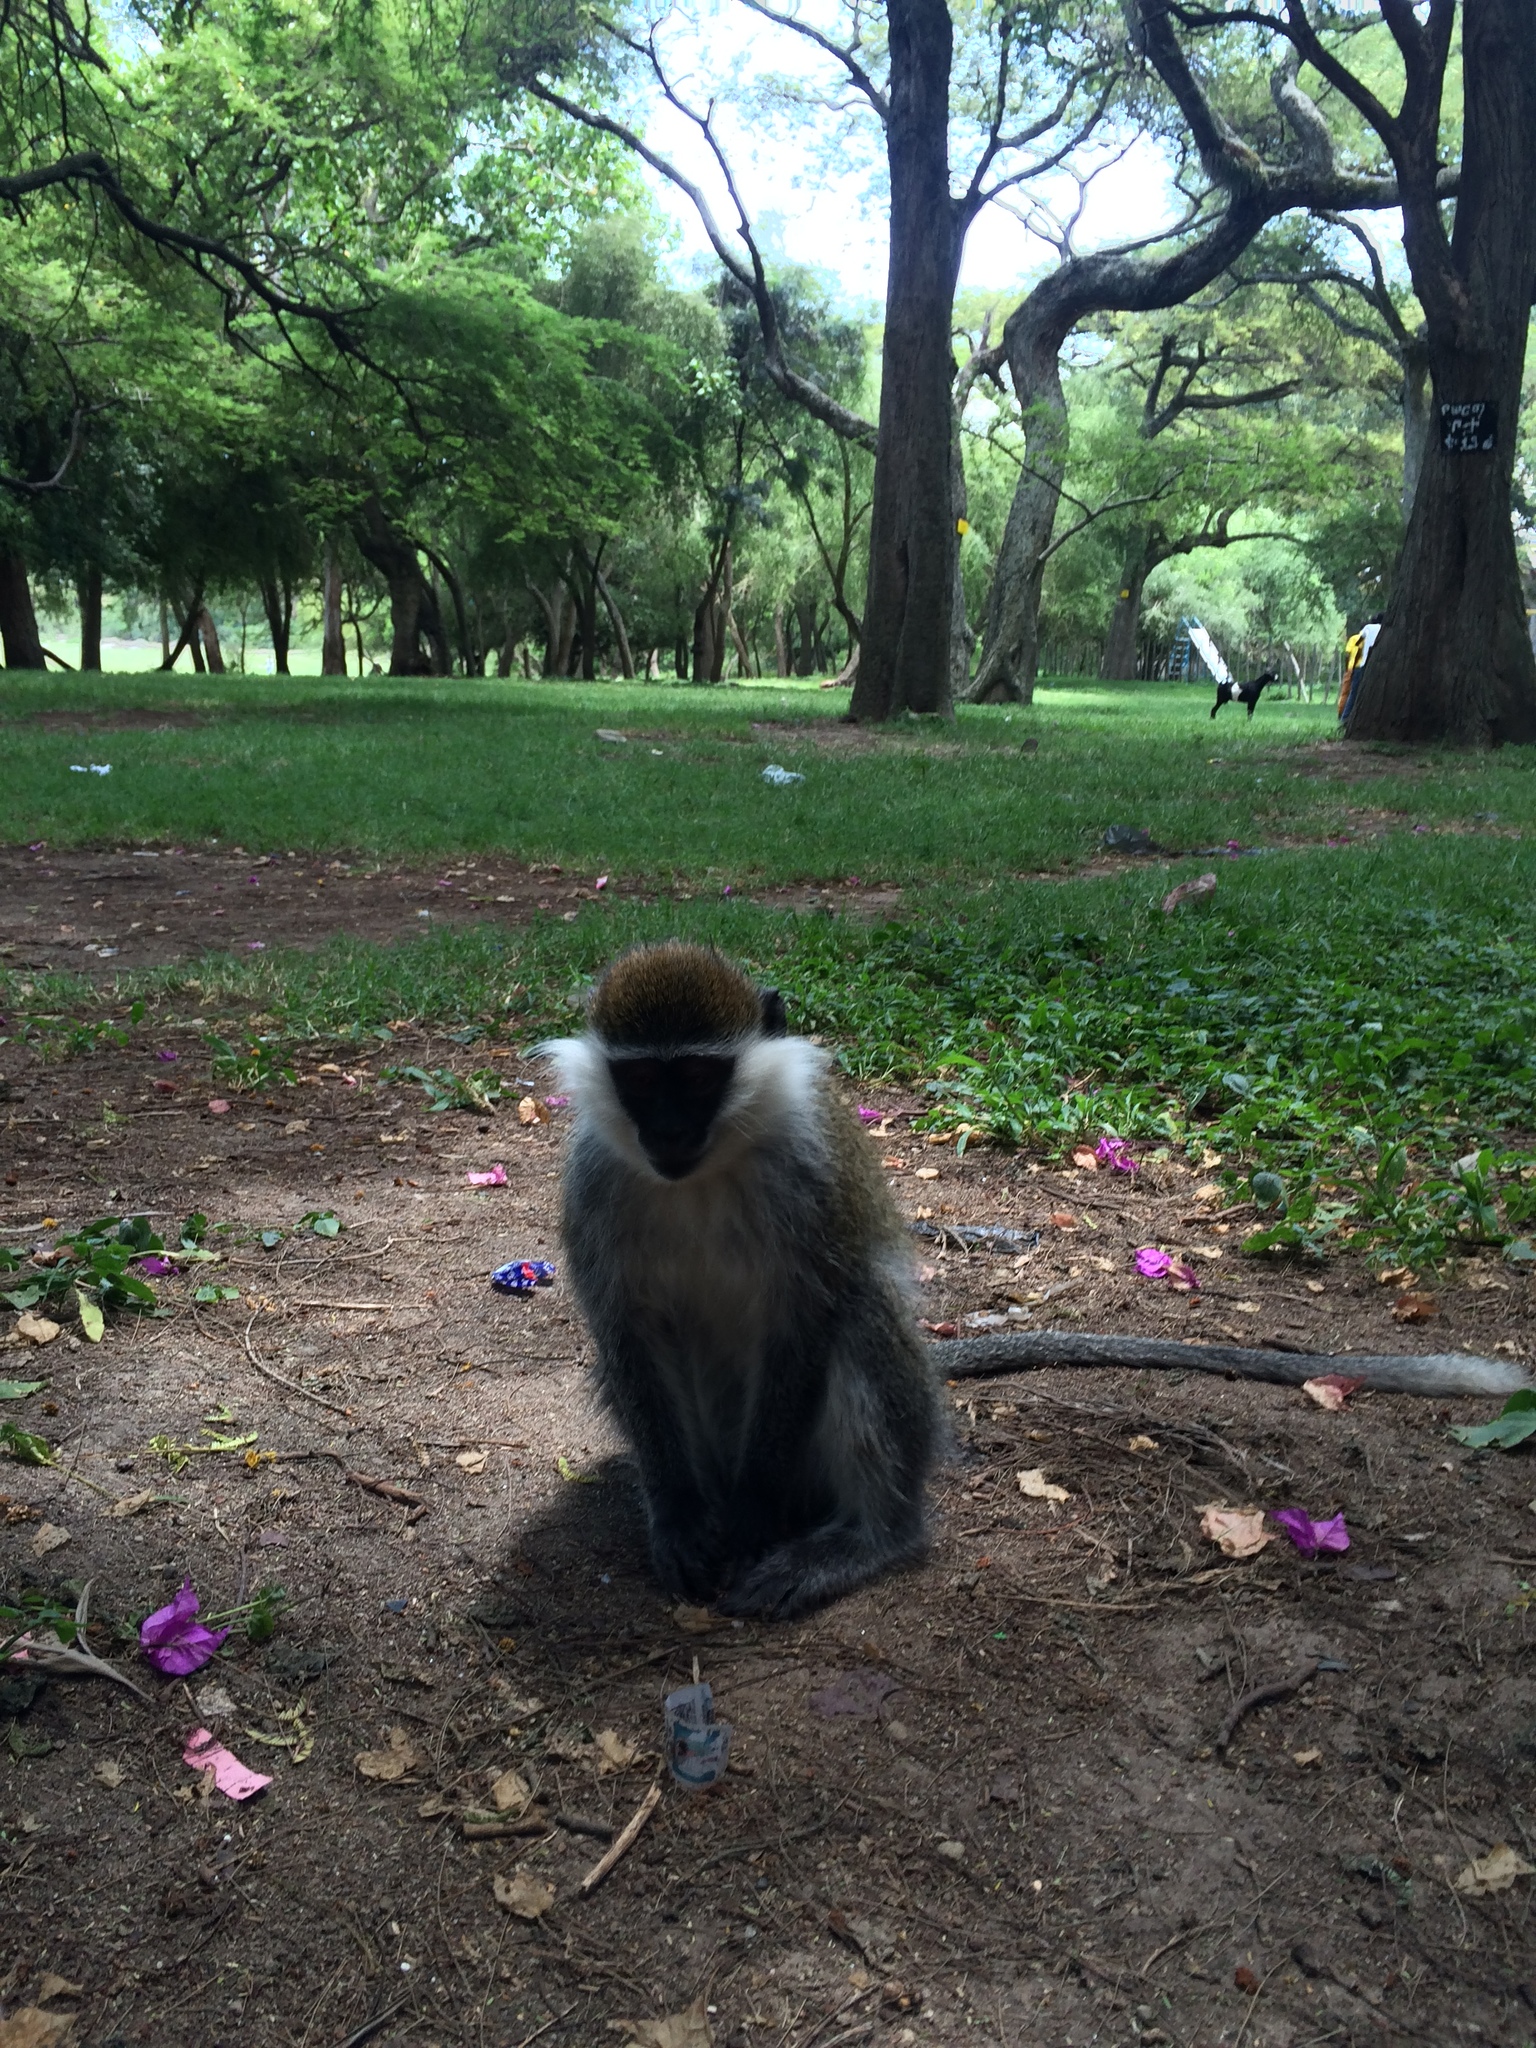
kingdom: Animalia
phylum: Chordata
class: Mammalia
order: Primates
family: Cercopithecidae
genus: Chlorocebus
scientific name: Chlorocebus aethiops
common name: Grivet
